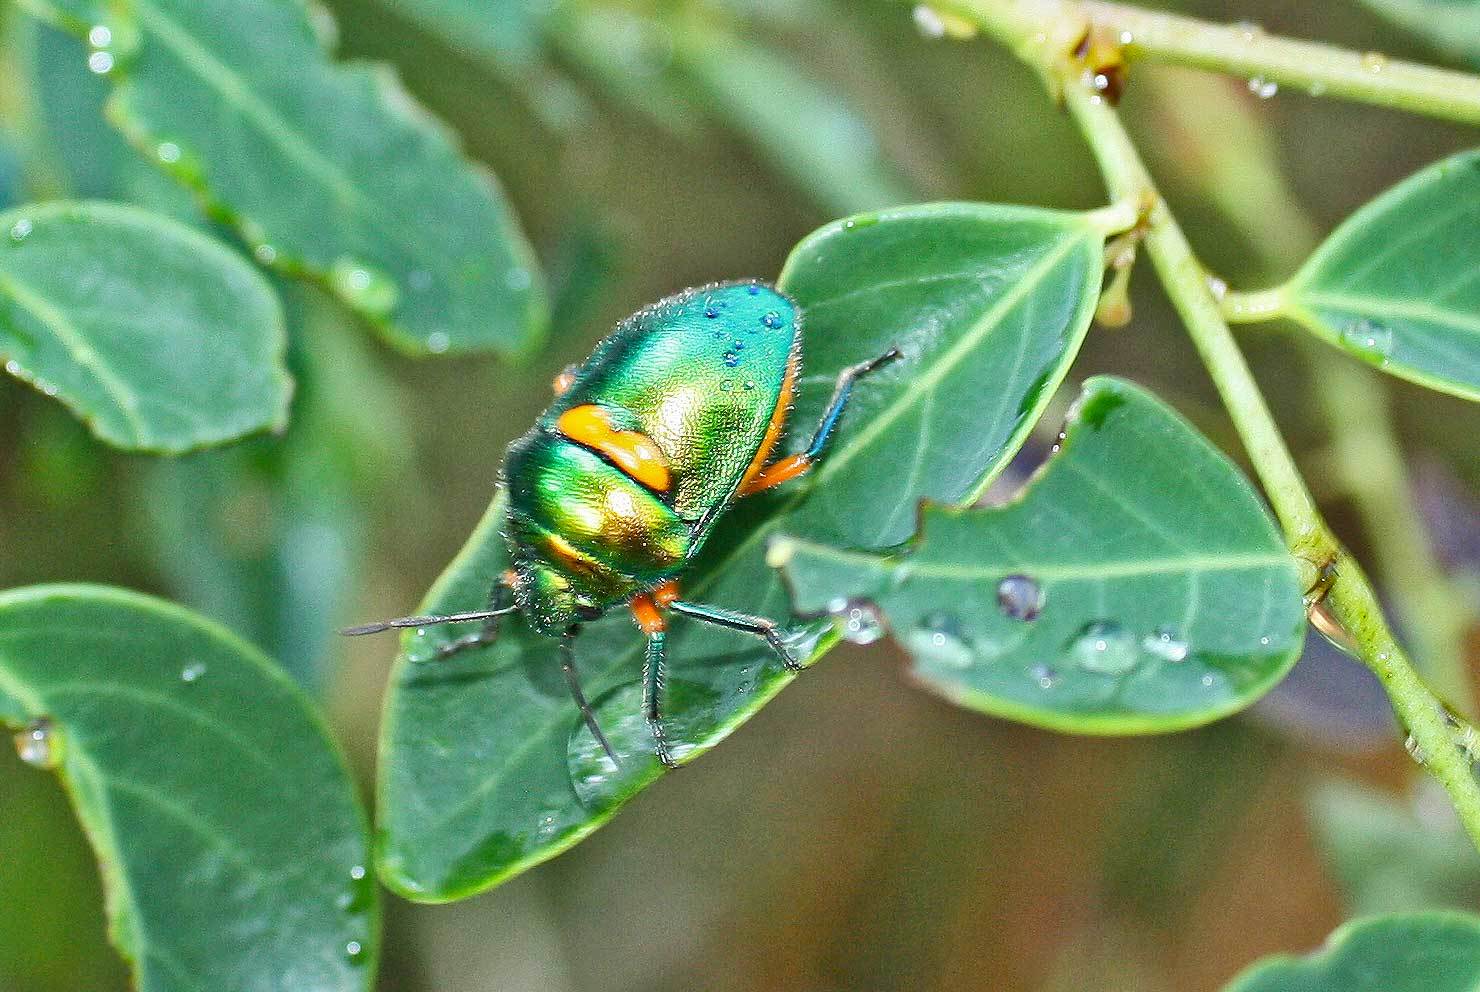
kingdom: Animalia
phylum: Arthropoda
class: Insecta
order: Hemiptera
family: Scutelleridae
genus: Lampromicra
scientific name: Lampromicra senator
